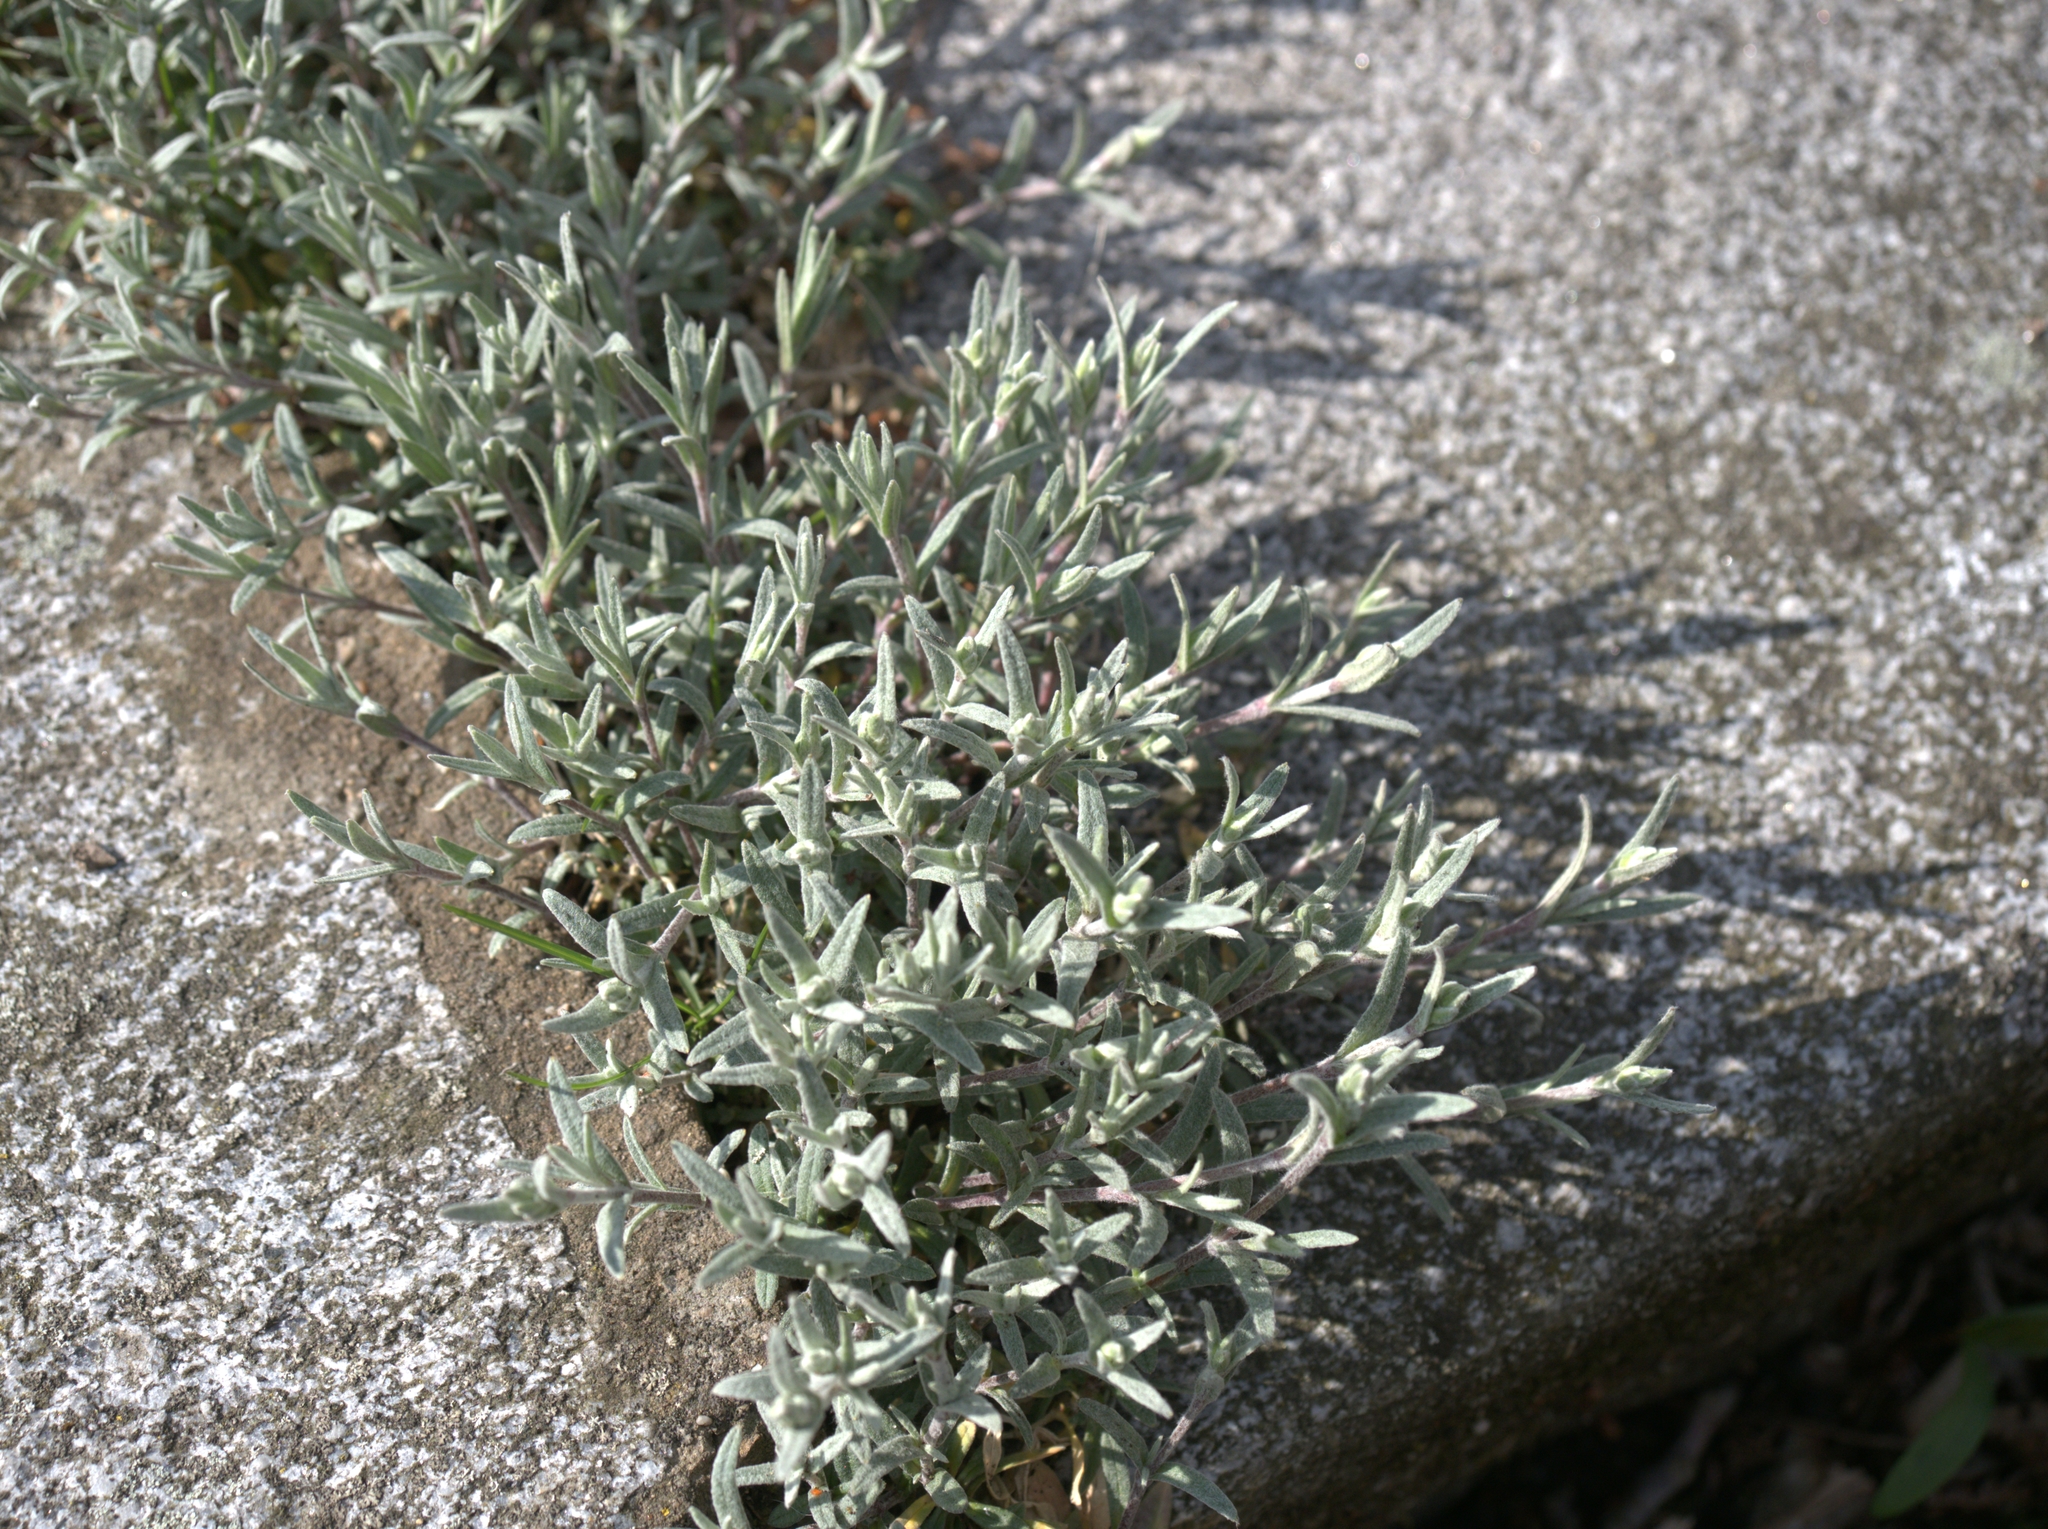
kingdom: Plantae
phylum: Tracheophyta
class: Magnoliopsida
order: Caryophyllales
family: Caryophyllaceae
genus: Cerastium
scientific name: Cerastium tomentosum
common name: Snow-in-summer
